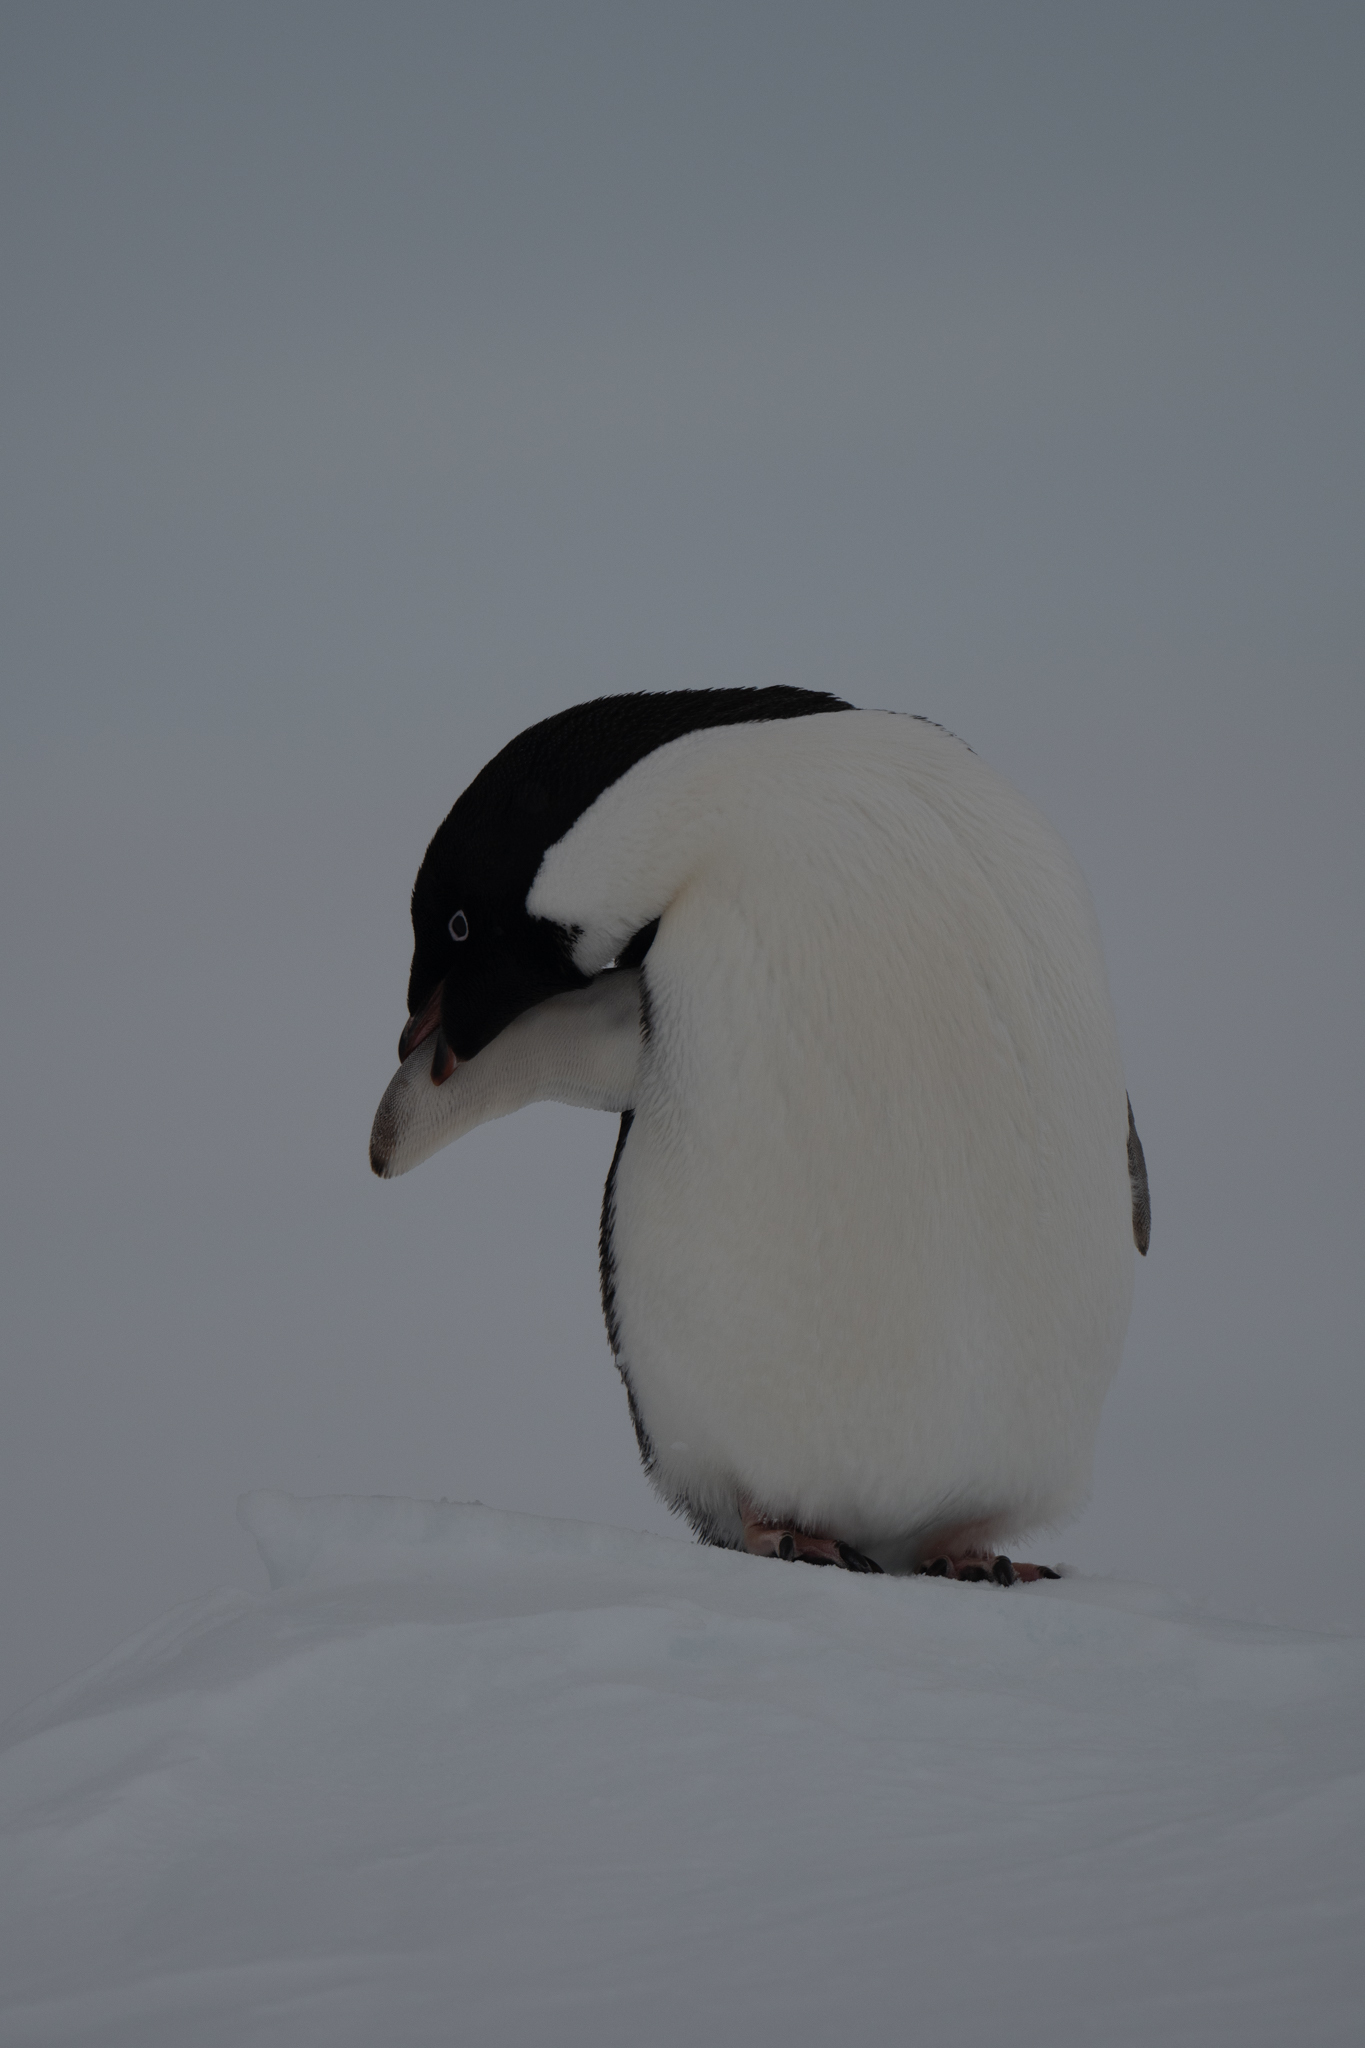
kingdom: Animalia
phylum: Chordata
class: Aves
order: Sphenisciformes
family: Spheniscidae
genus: Pygoscelis
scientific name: Pygoscelis adeliae
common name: Adelie penguin
